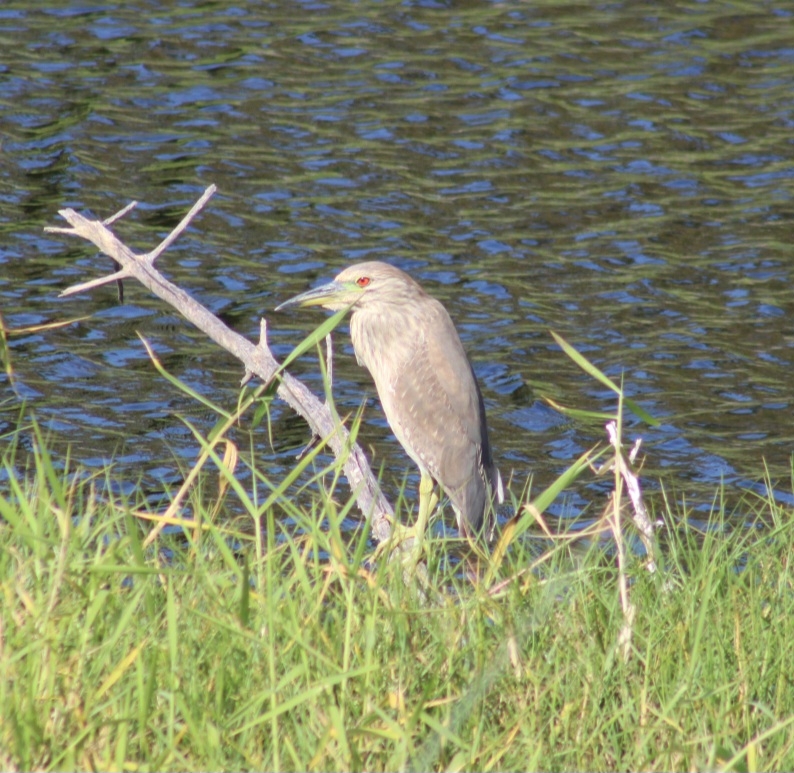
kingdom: Animalia
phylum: Chordata
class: Aves
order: Pelecaniformes
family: Ardeidae
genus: Nycticorax
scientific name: Nycticorax nycticorax
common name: Black-crowned night heron
